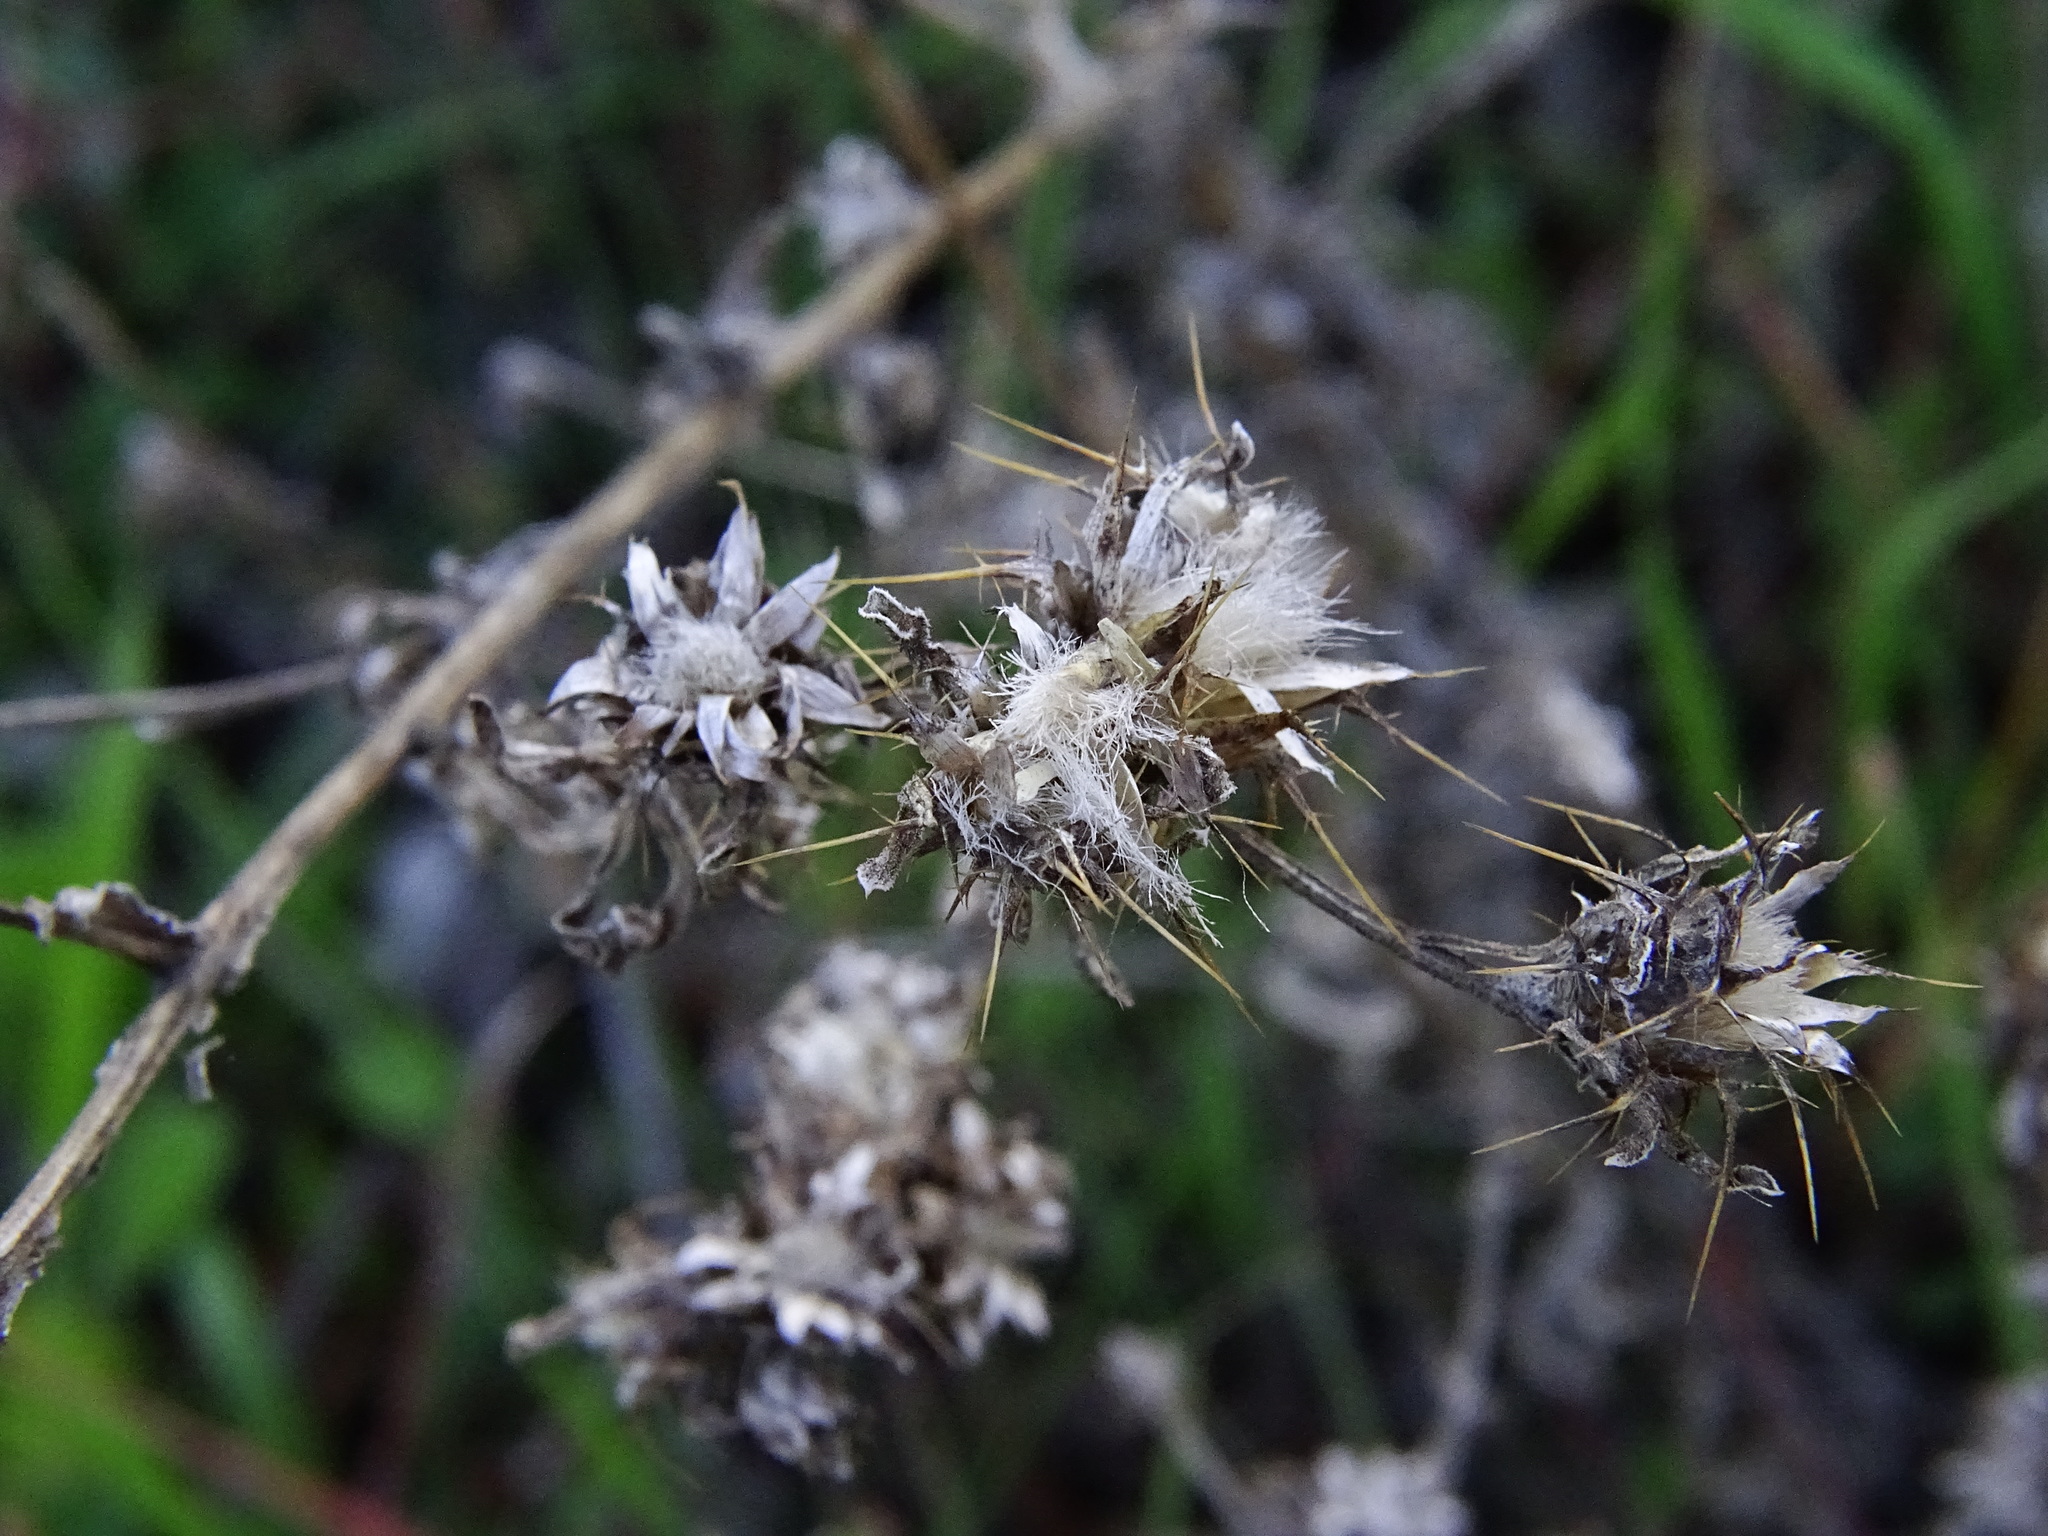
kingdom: Plantae
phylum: Tracheophyta
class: Magnoliopsida
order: Asterales
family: Asteraceae
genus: Centaurea
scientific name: Centaurea melitensis
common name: Maltese star-thistle
